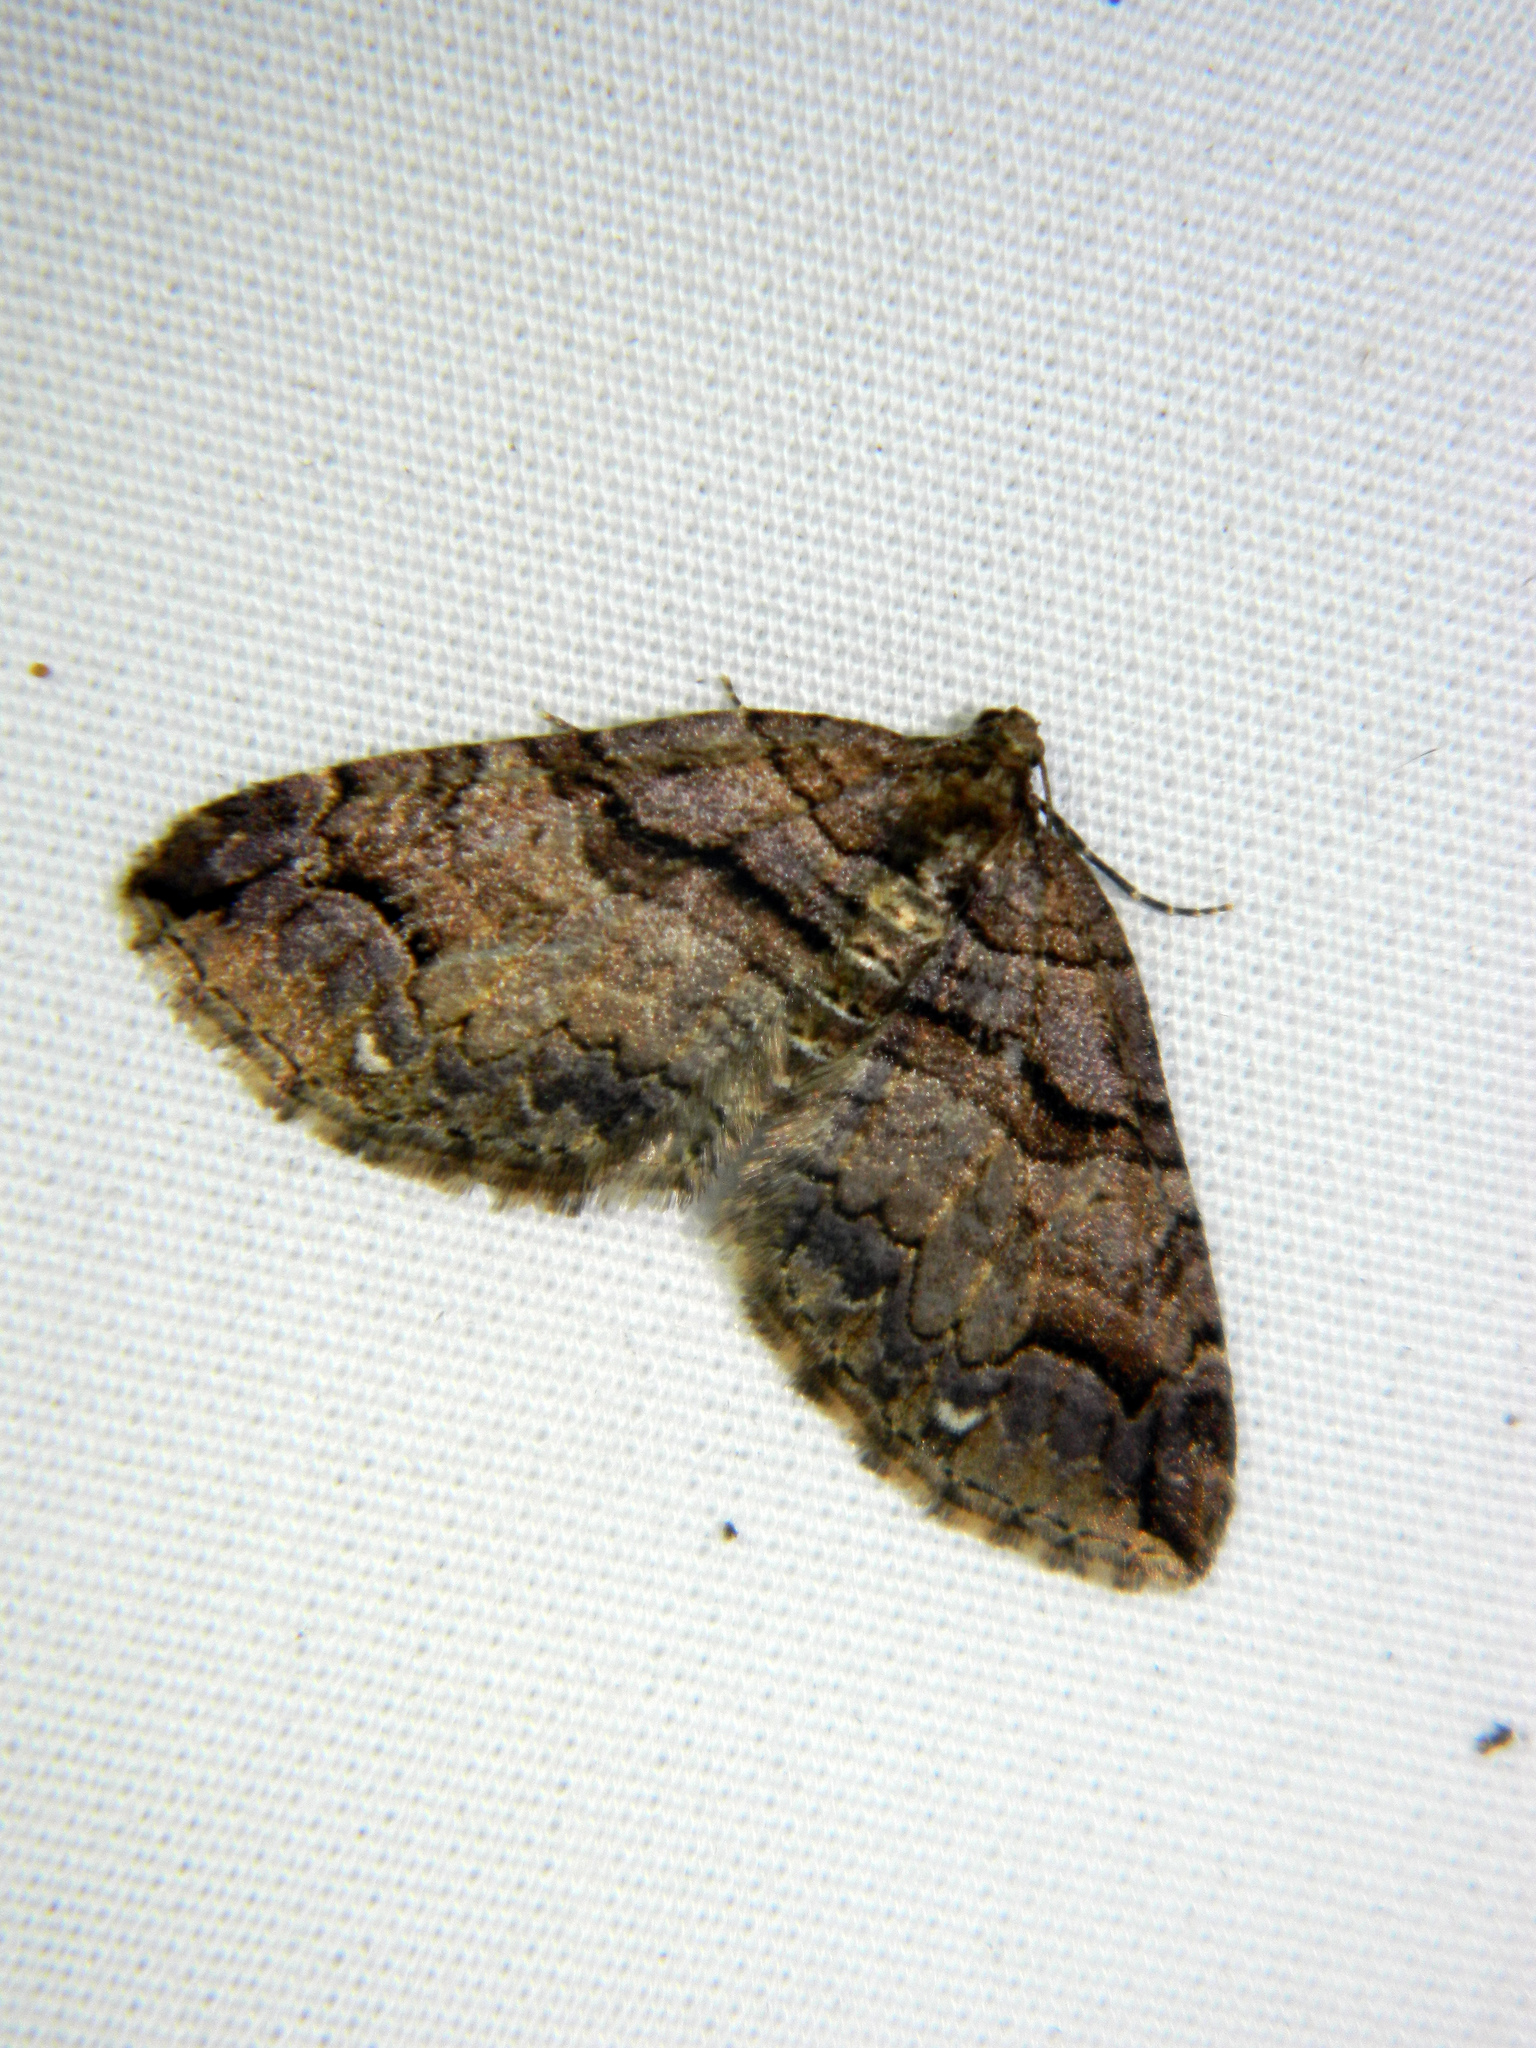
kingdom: Animalia
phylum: Arthropoda
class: Insecta
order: Lepidoptera
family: Geometridae
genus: Anticlea
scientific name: Anticlea vasiliata
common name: Variable carpet
